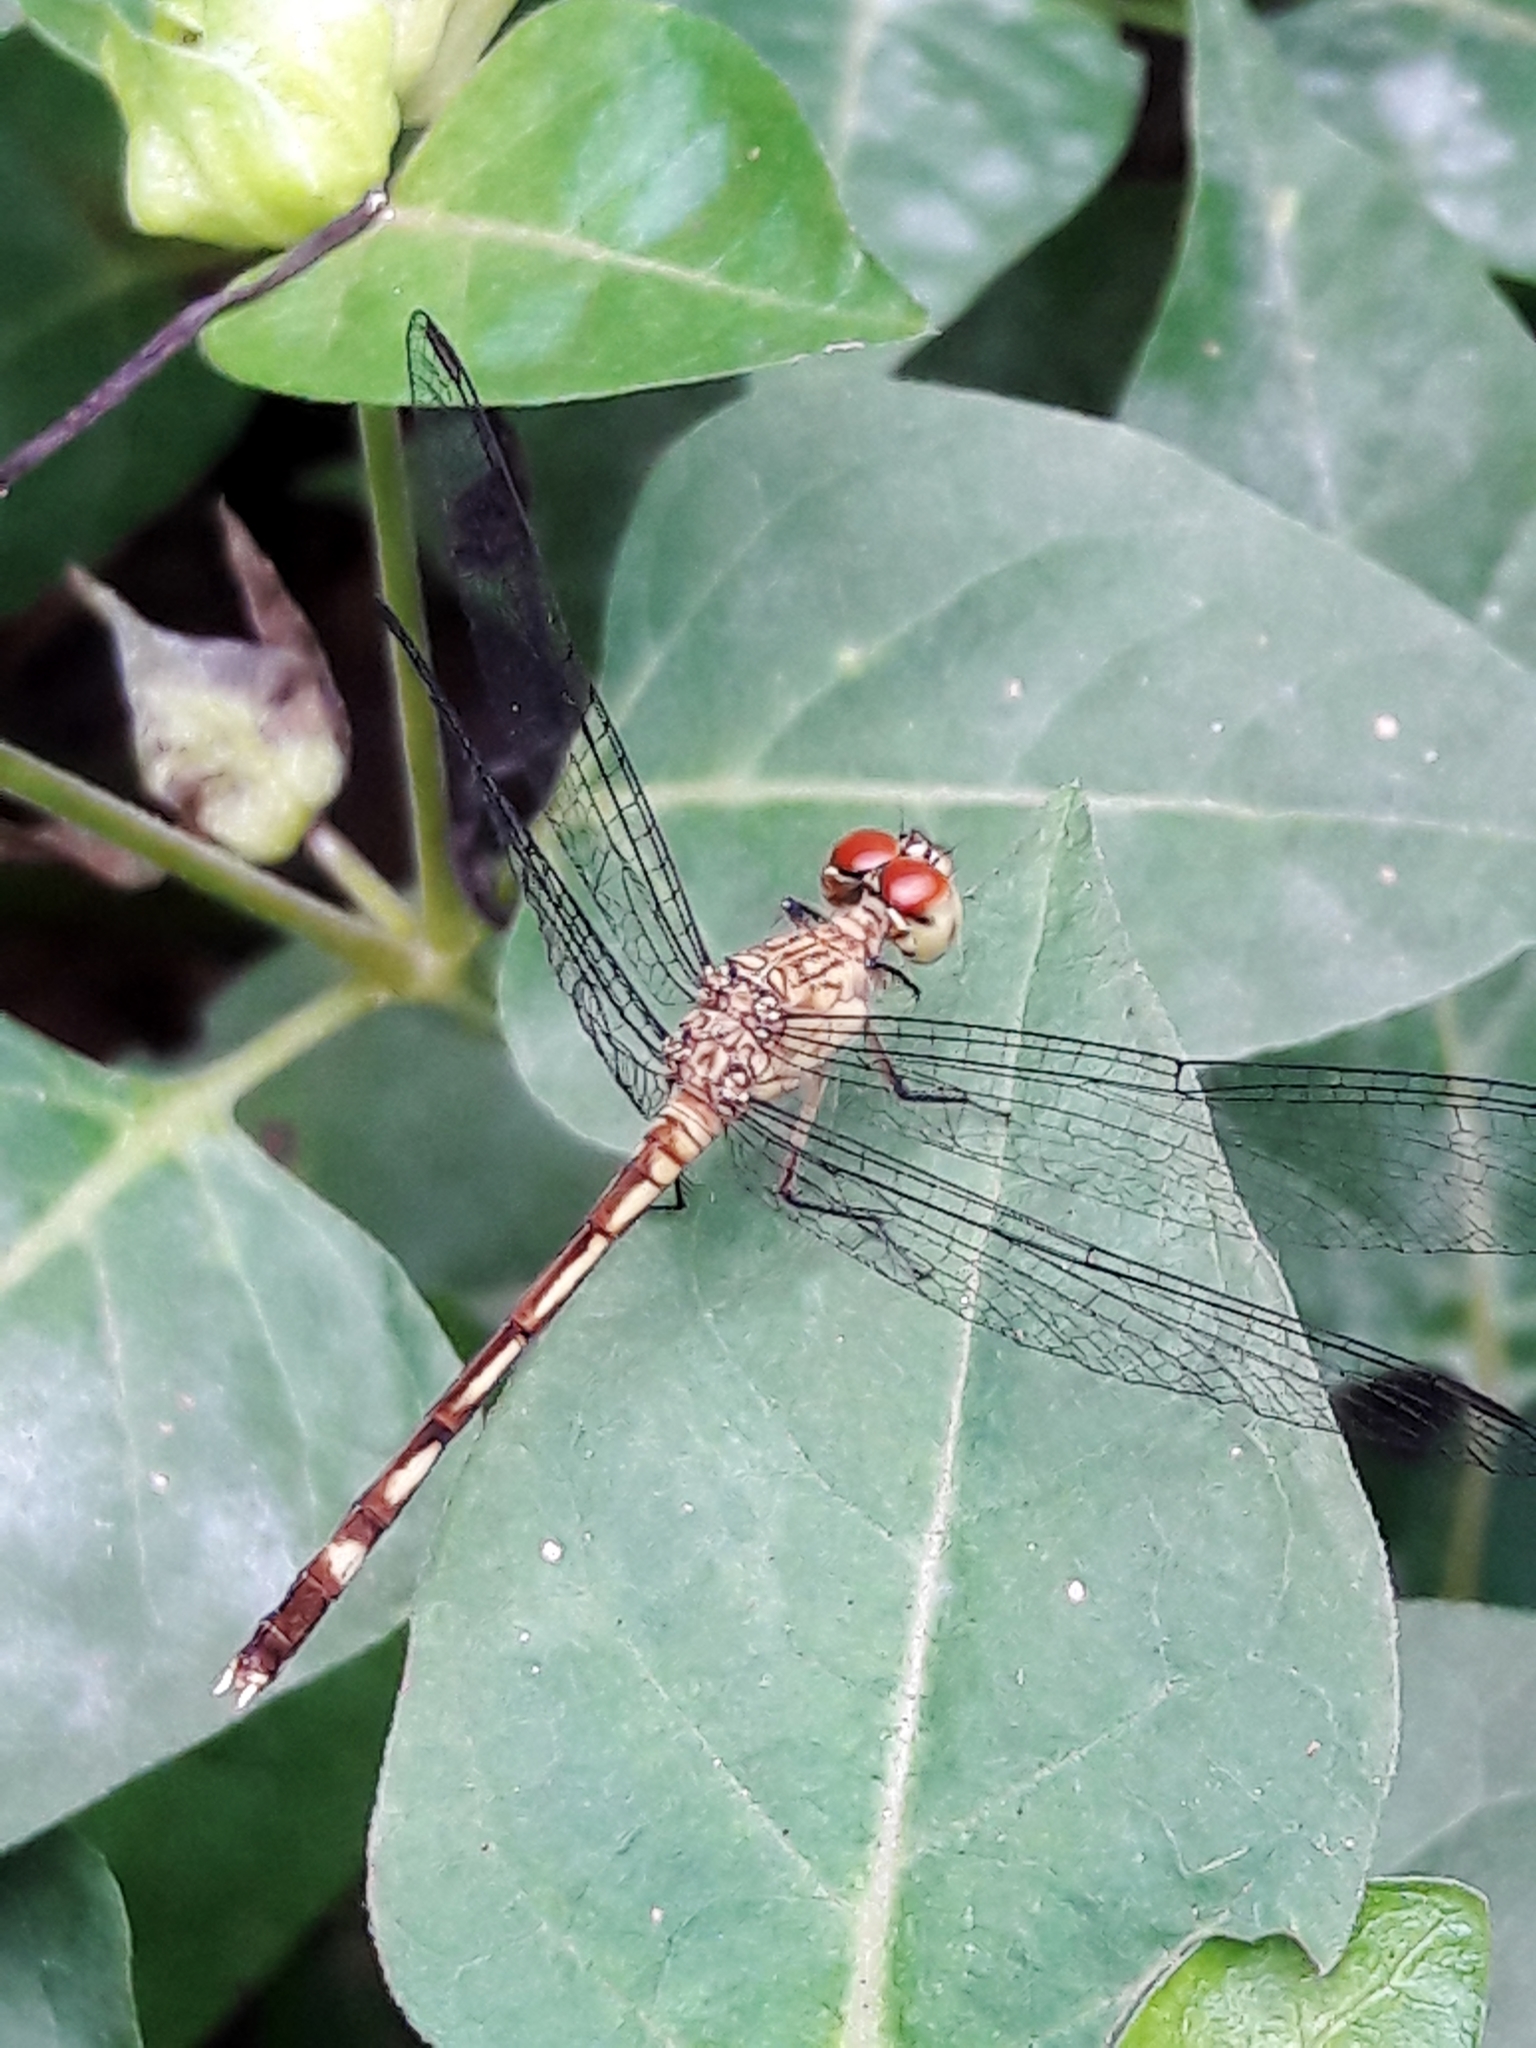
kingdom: Animalia
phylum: Arthropoda
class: Insecta
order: Odonata
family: Libellulidae
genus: Anatya
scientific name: Anatya guttata
